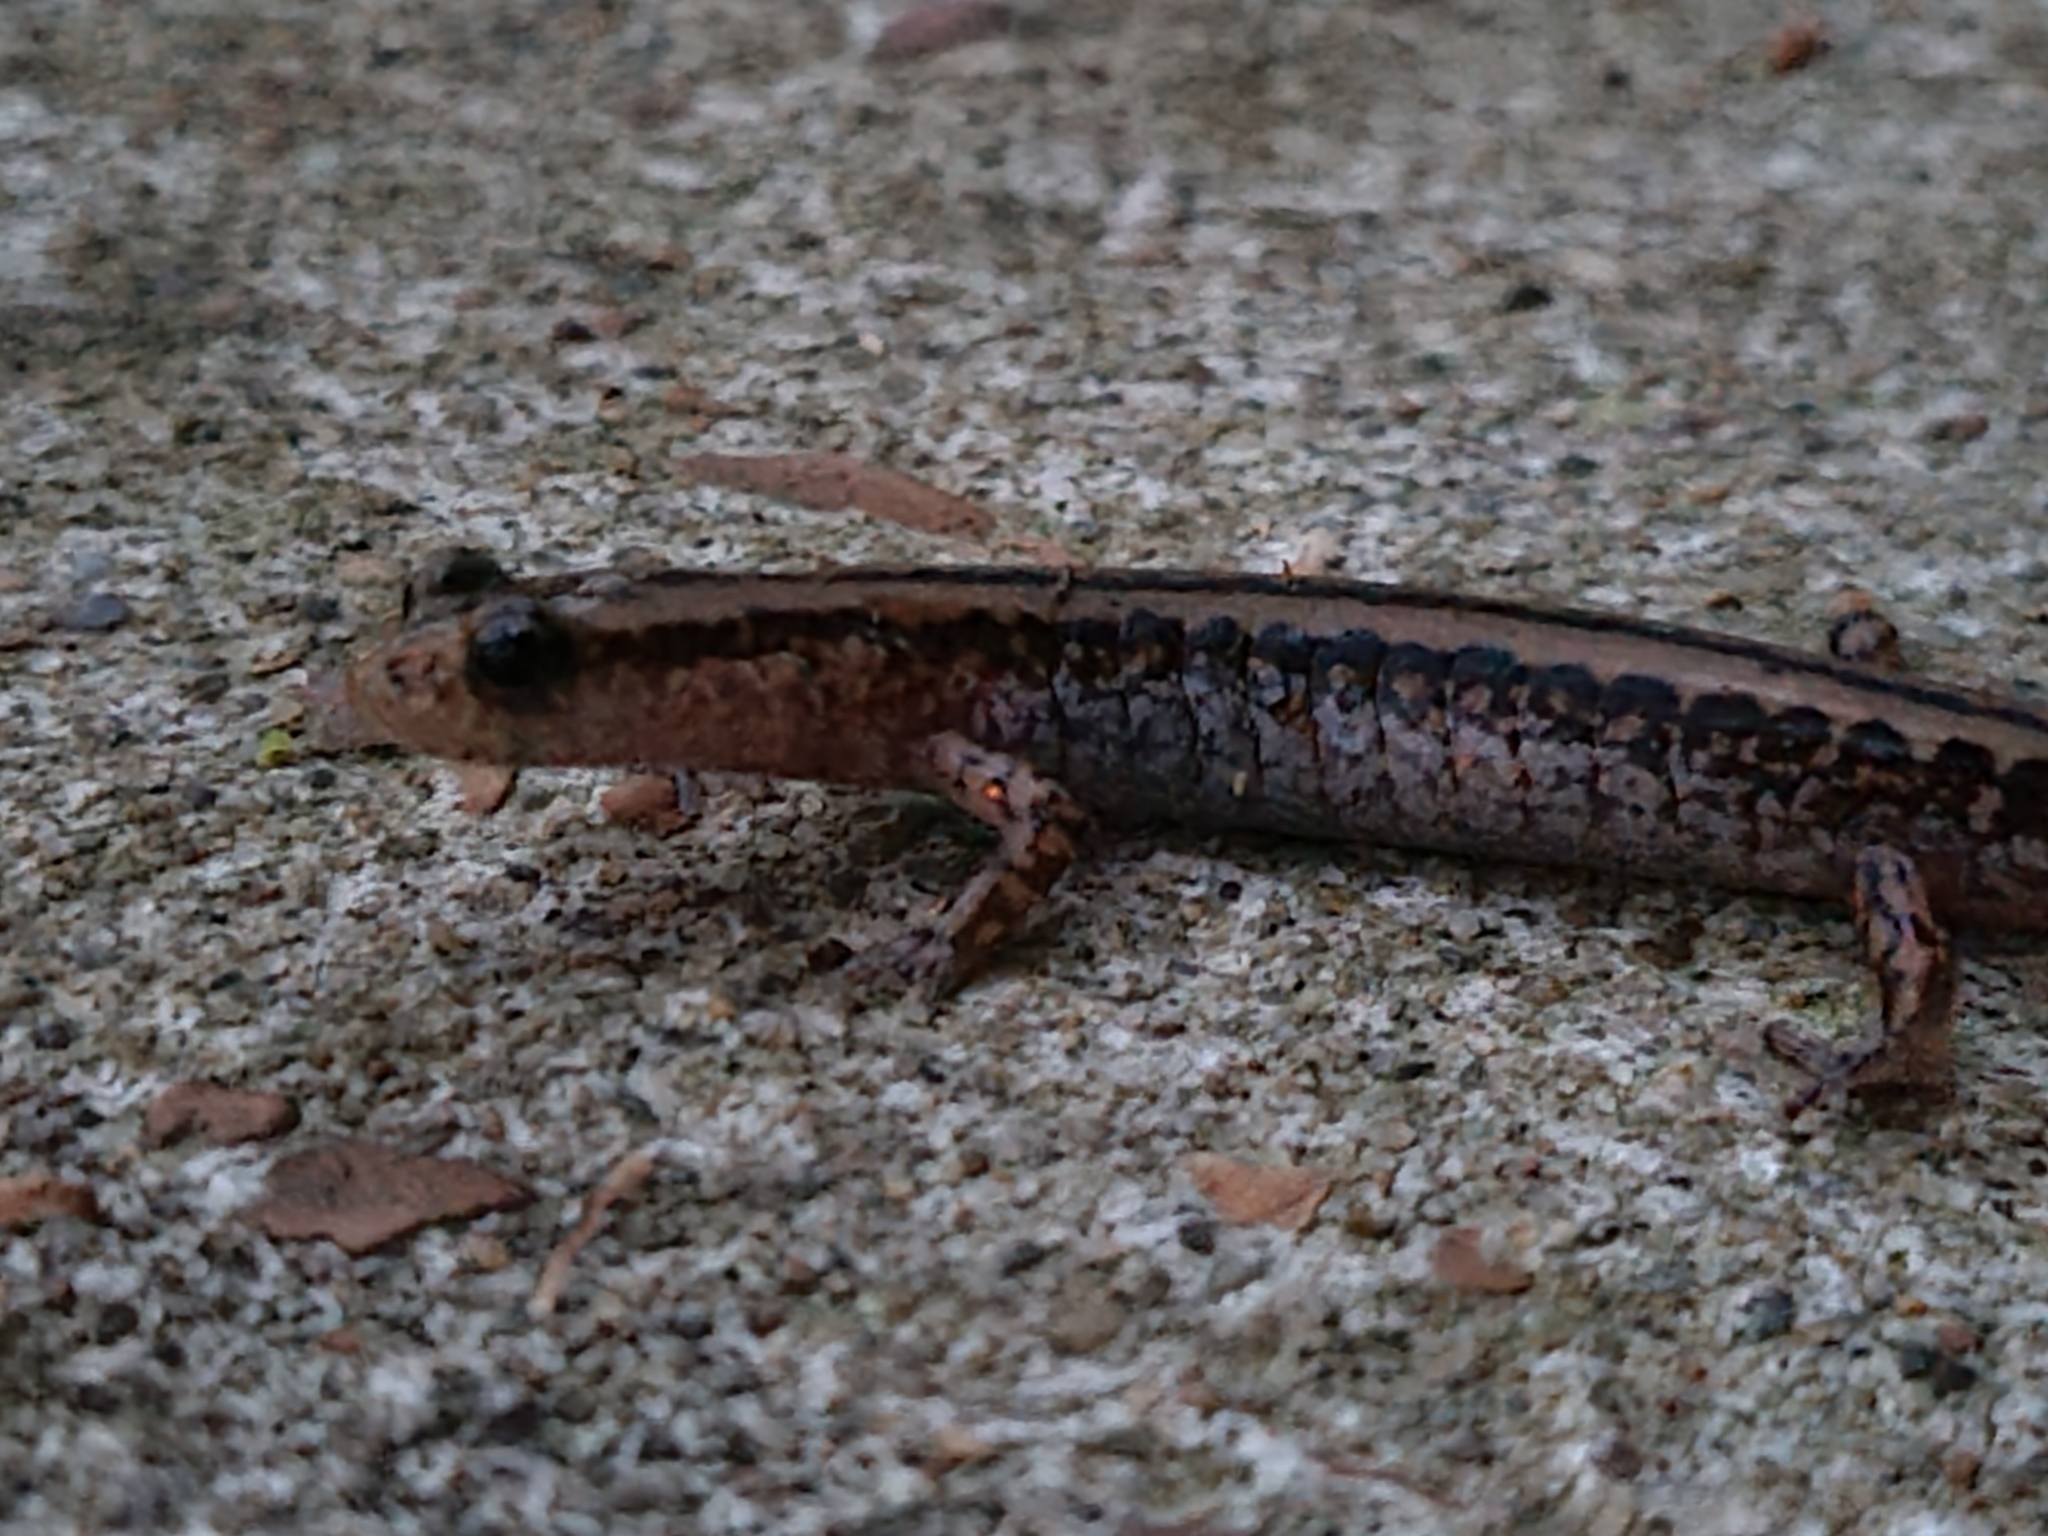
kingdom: Animalia
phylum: Chordata
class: Amphibia
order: Caudata
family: Plethodontidae
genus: Eurycea
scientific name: Eurycea guttolineata
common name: Three-lined salamander
